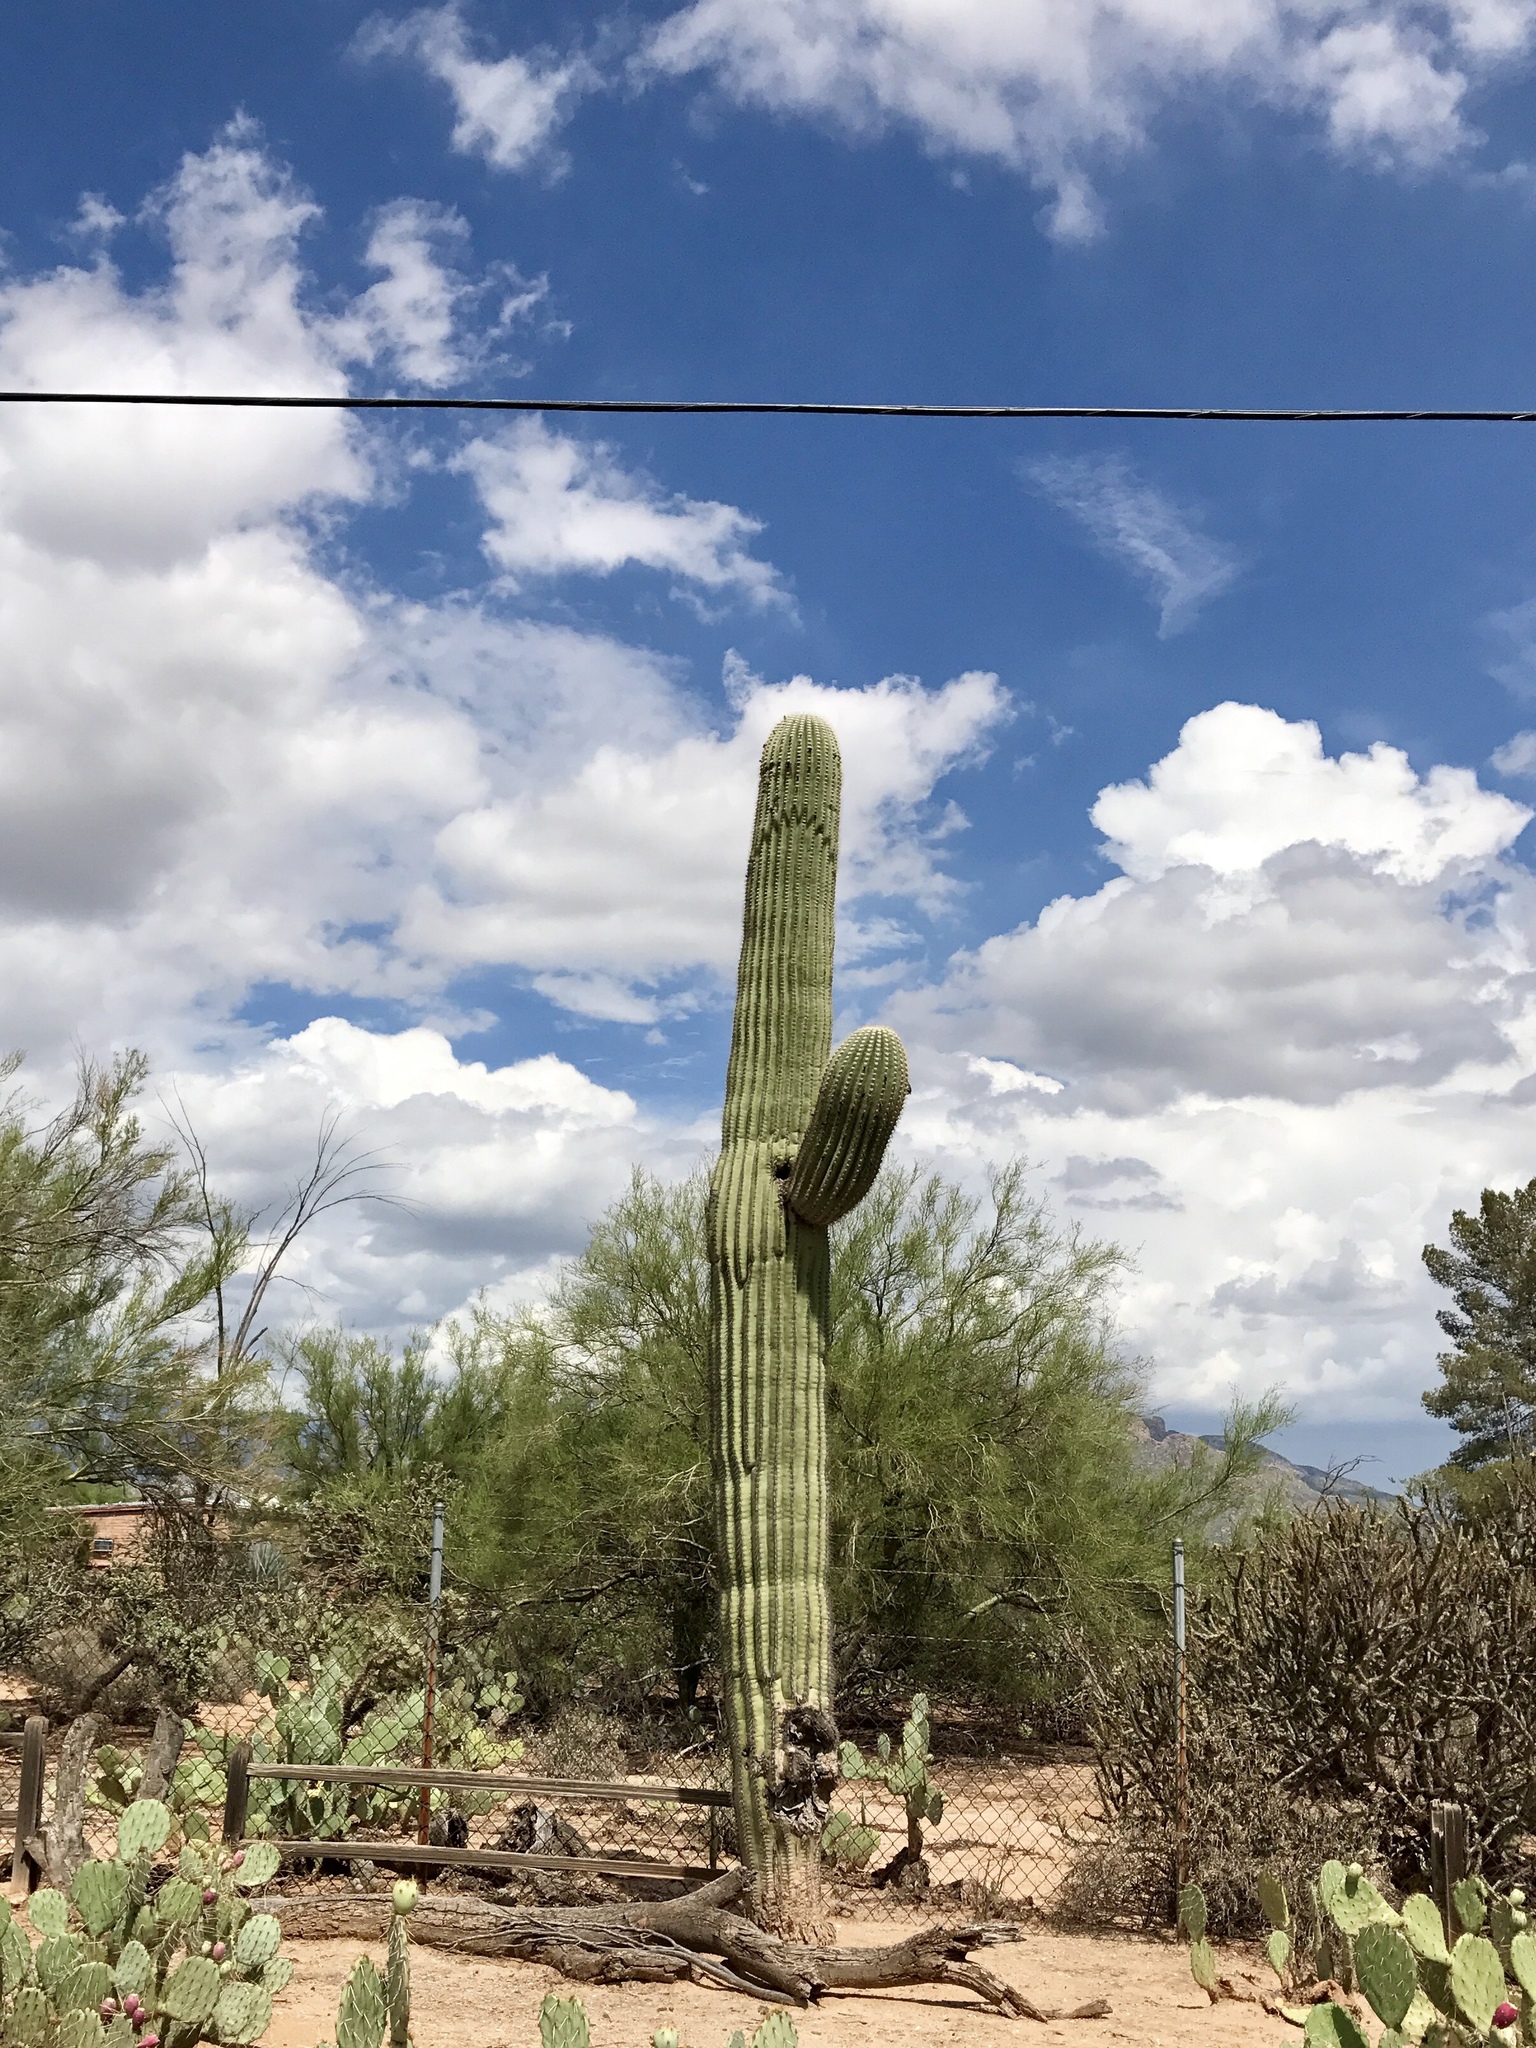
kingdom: Plantae
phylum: Tracheophyta
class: Magnoliopsida
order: Caryophyllales
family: Cactaceae
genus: Carnegiea
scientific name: Carnegiea gigantea
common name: Saguaro
